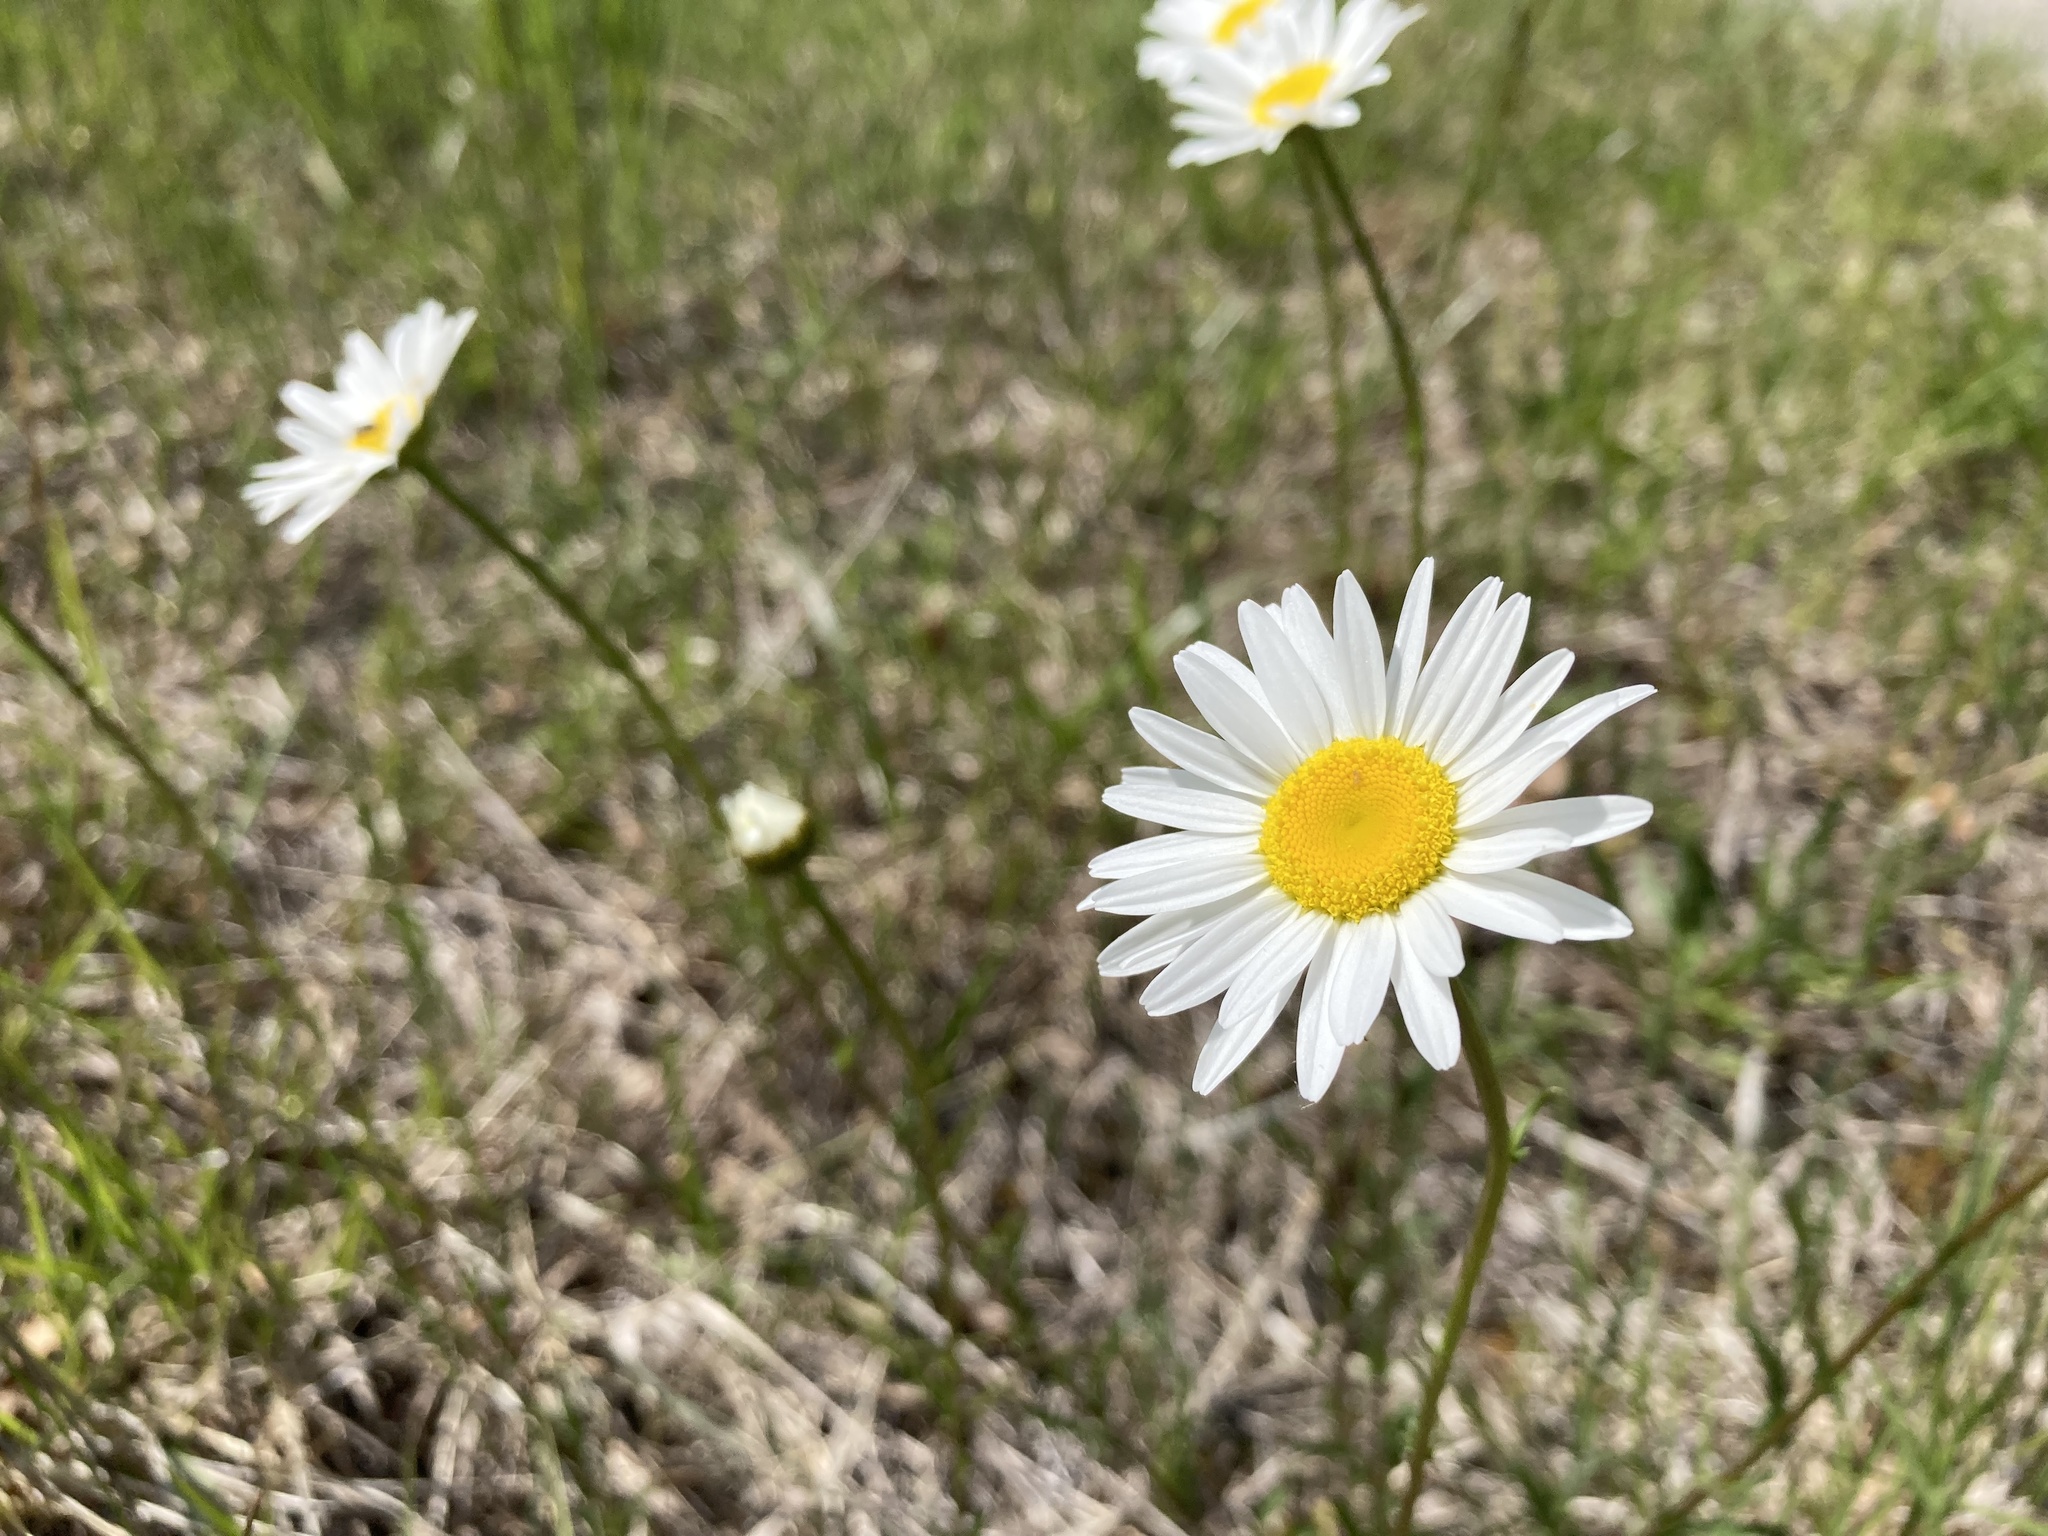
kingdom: Plantae
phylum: Tracheophyta
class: Magnoliopsida
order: Asterales
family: Asteraceae
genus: Leucanthemum
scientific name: Leucanthemum vulgare
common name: Oxeye daisy
